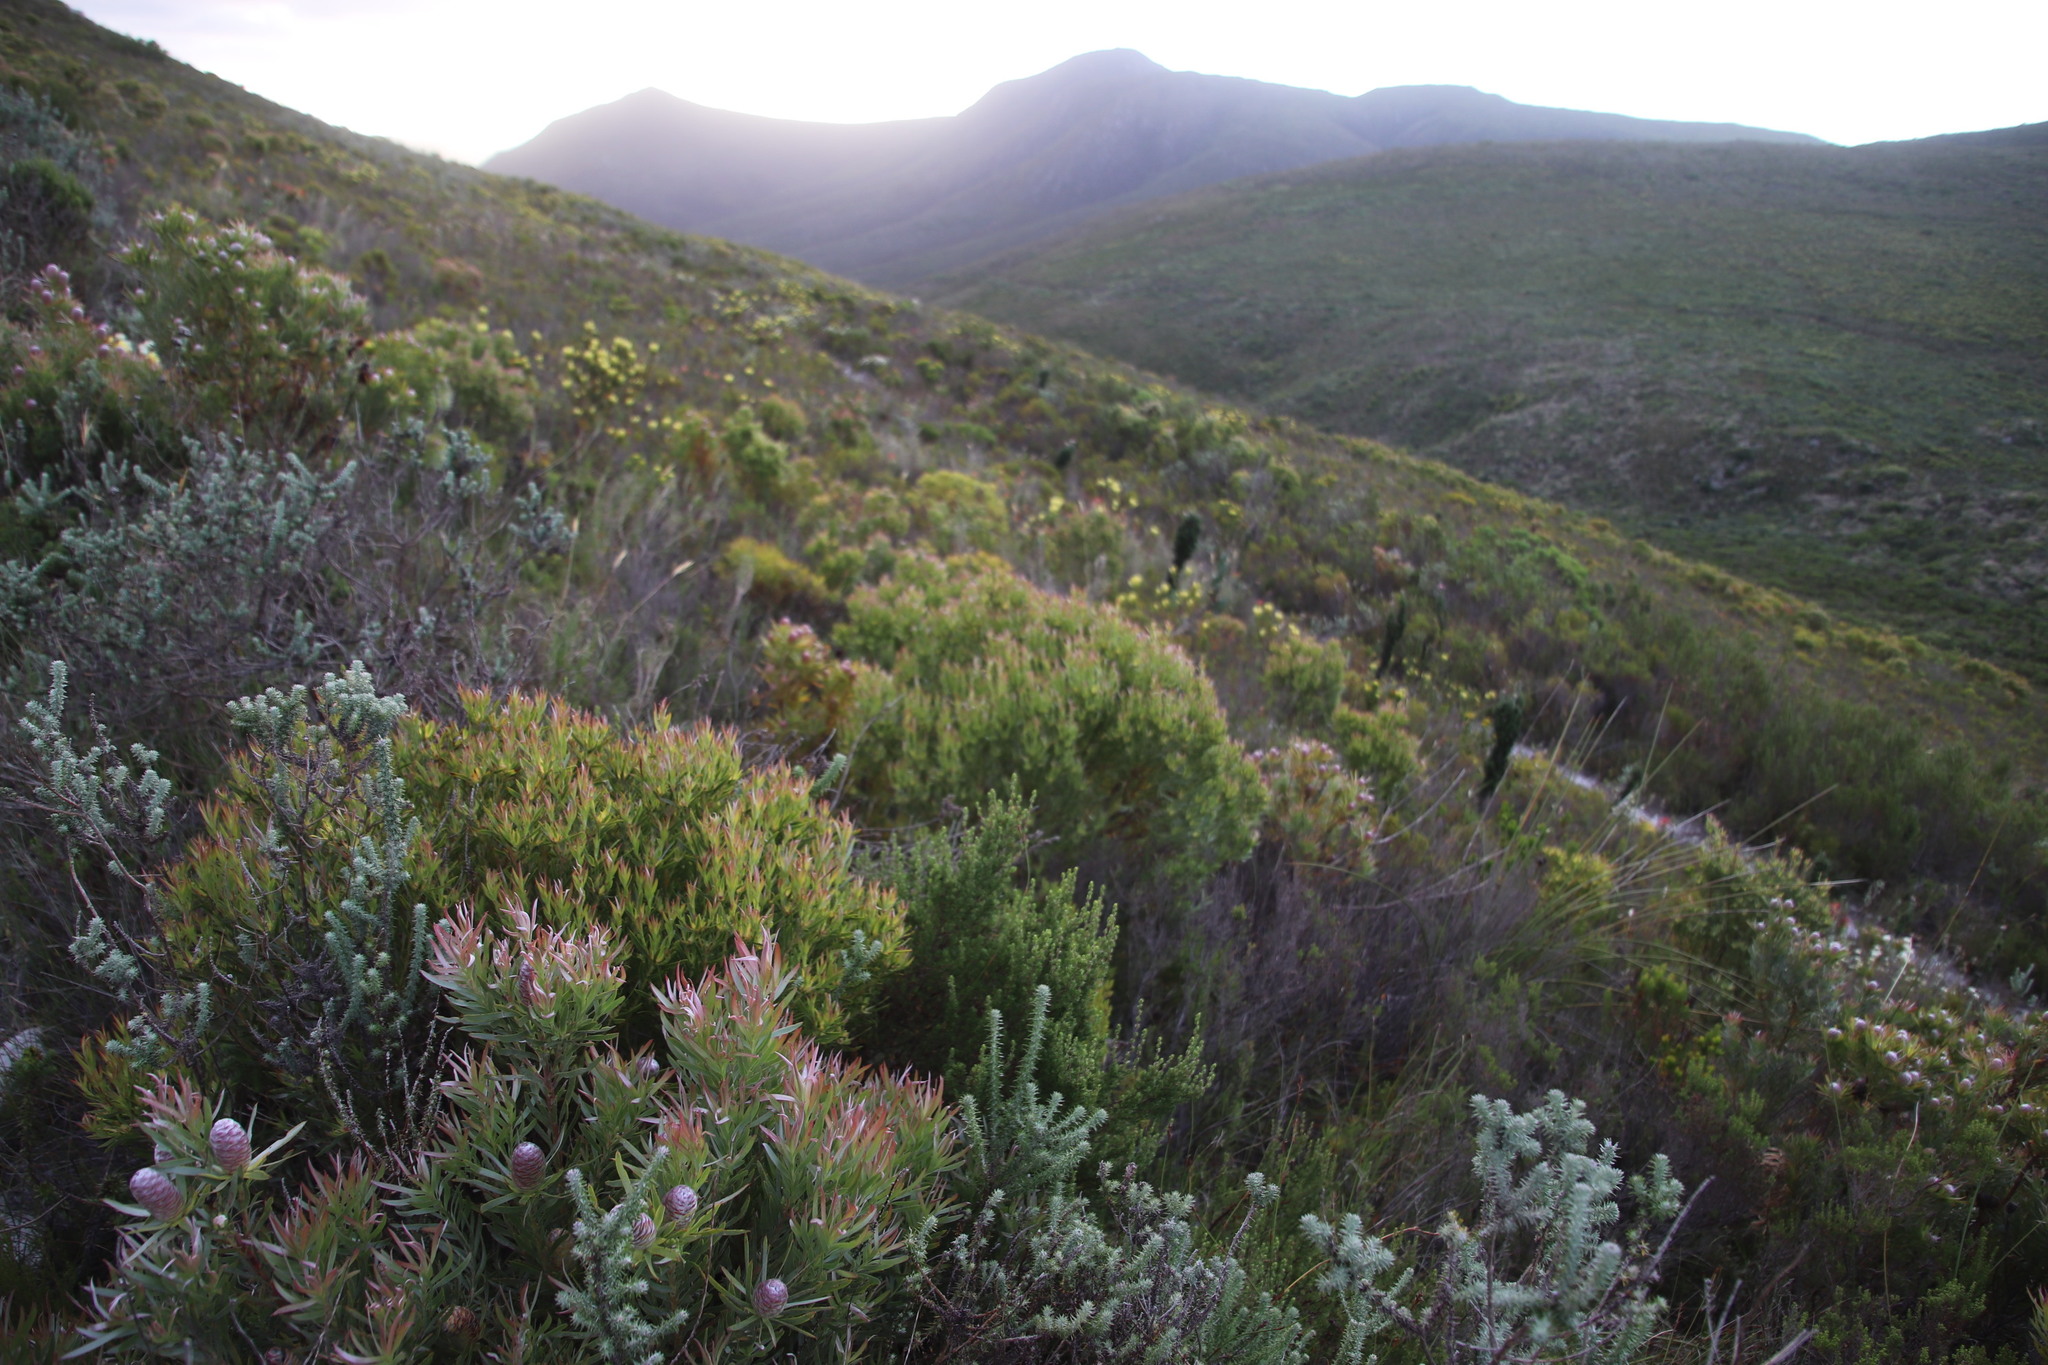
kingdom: Plantae
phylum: Tracheophyta
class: Magnoliopsida
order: Proteales
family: Proteaceae
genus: Leucadendron
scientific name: Leucadendron xanthoconus
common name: Sickle-leaf conebush
